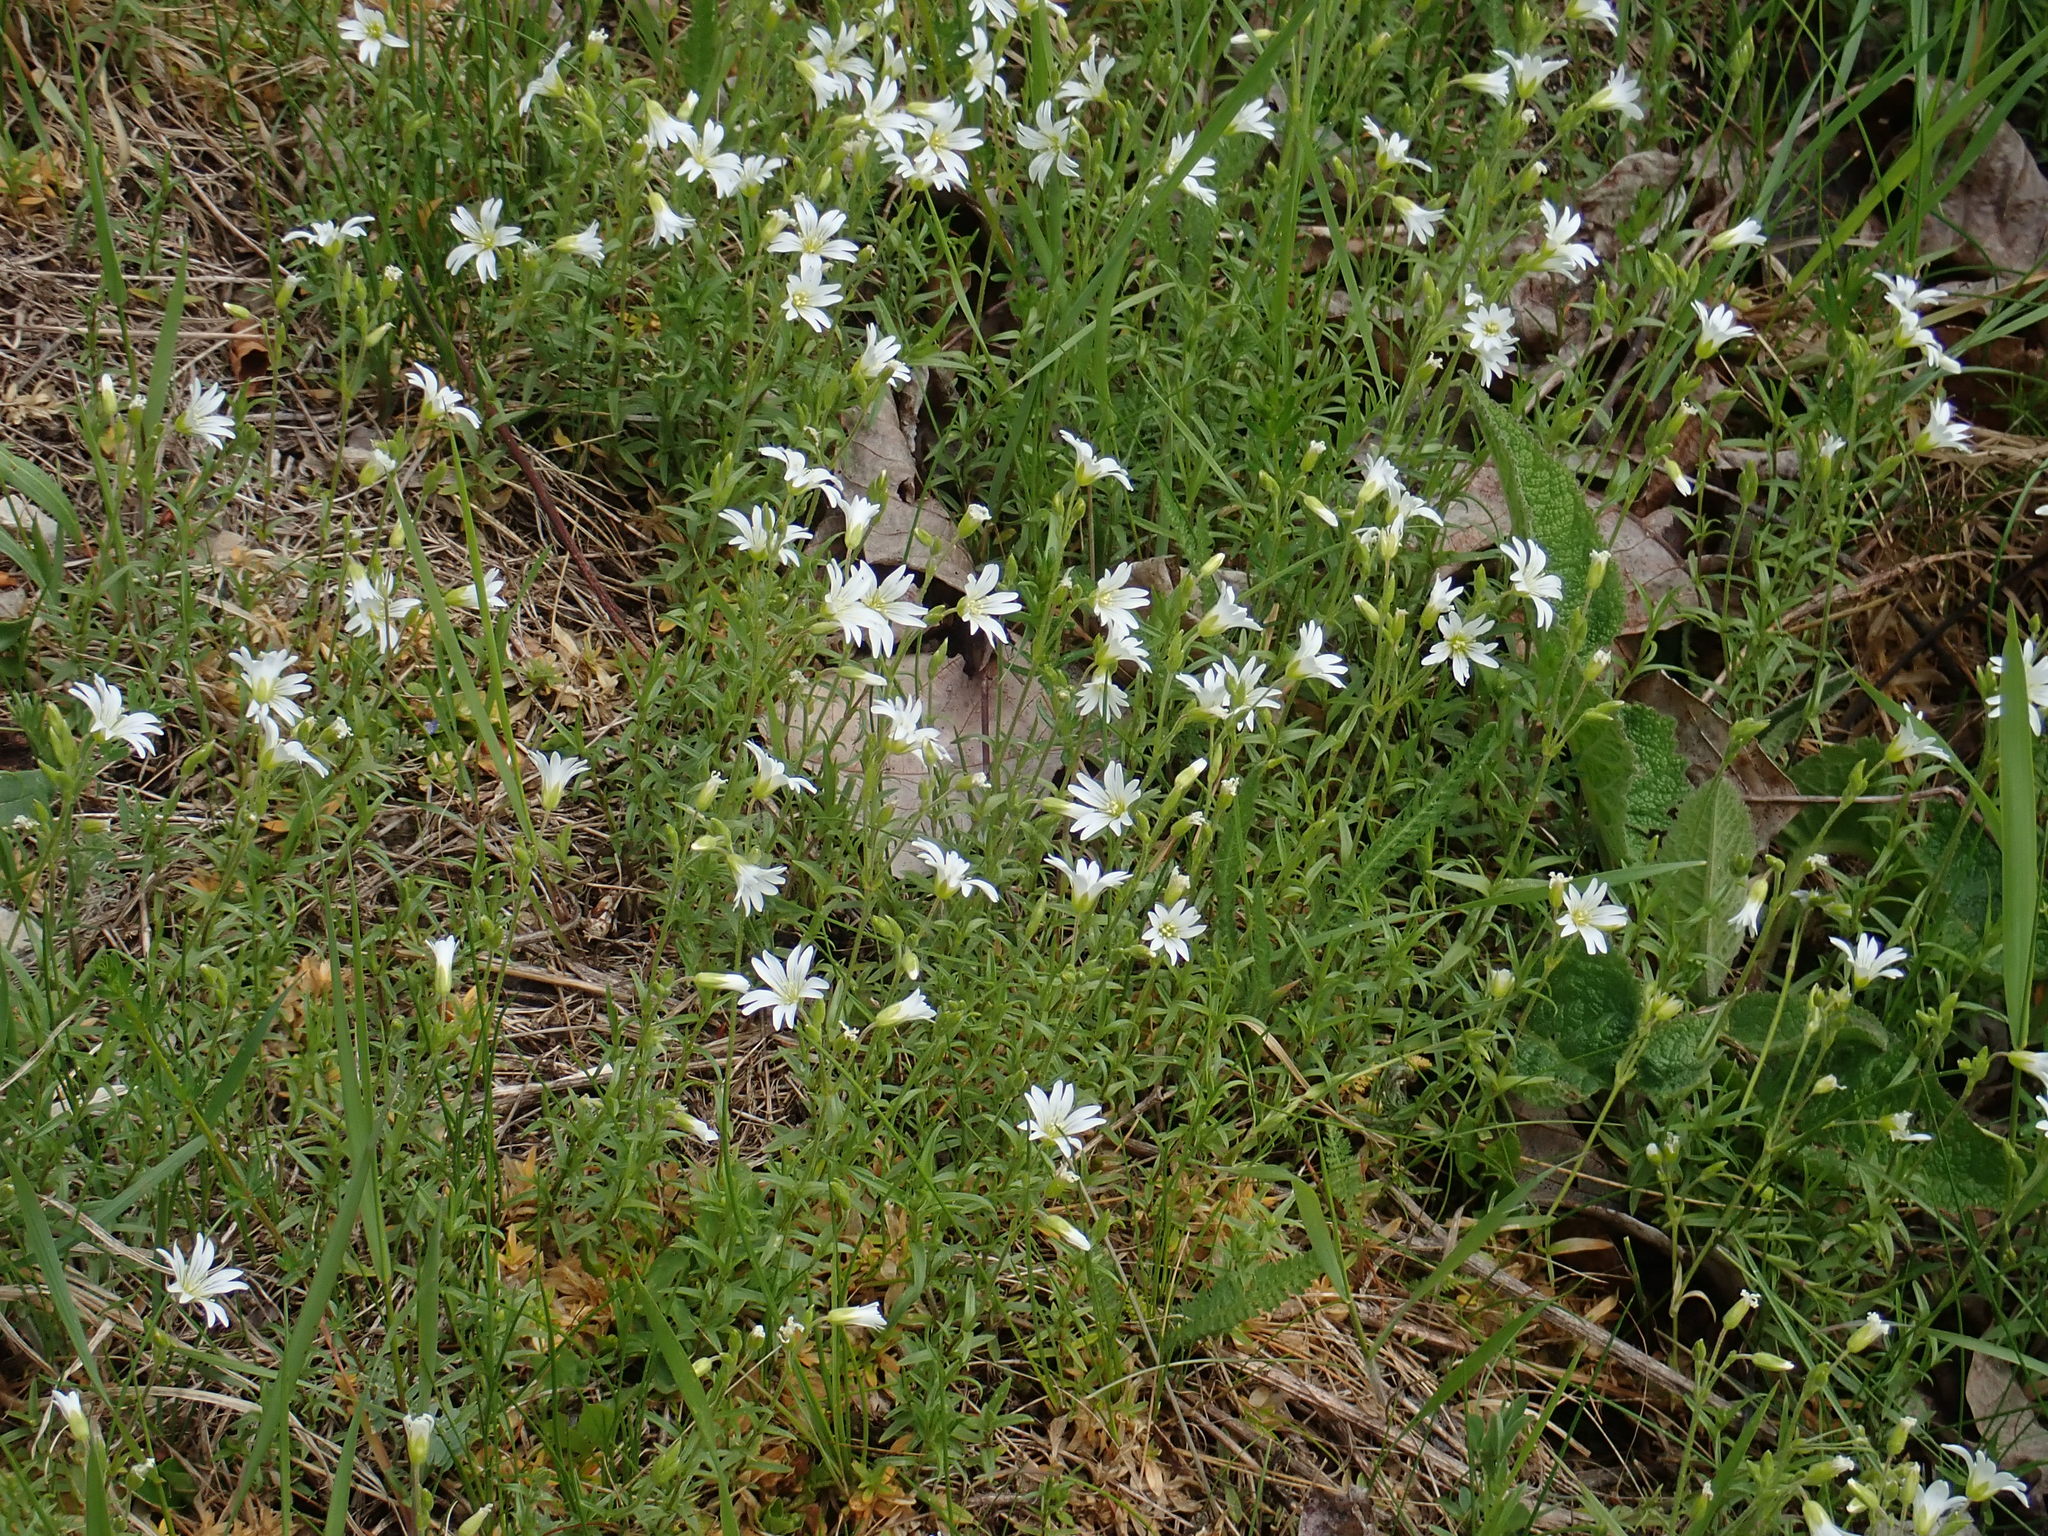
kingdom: Plantae
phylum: Tracheophyta
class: Magnoliopsida
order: Caryophyllales
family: Caryophyllaceae
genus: Cerastium
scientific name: Cerastium arvense
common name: Field mouse-ear
